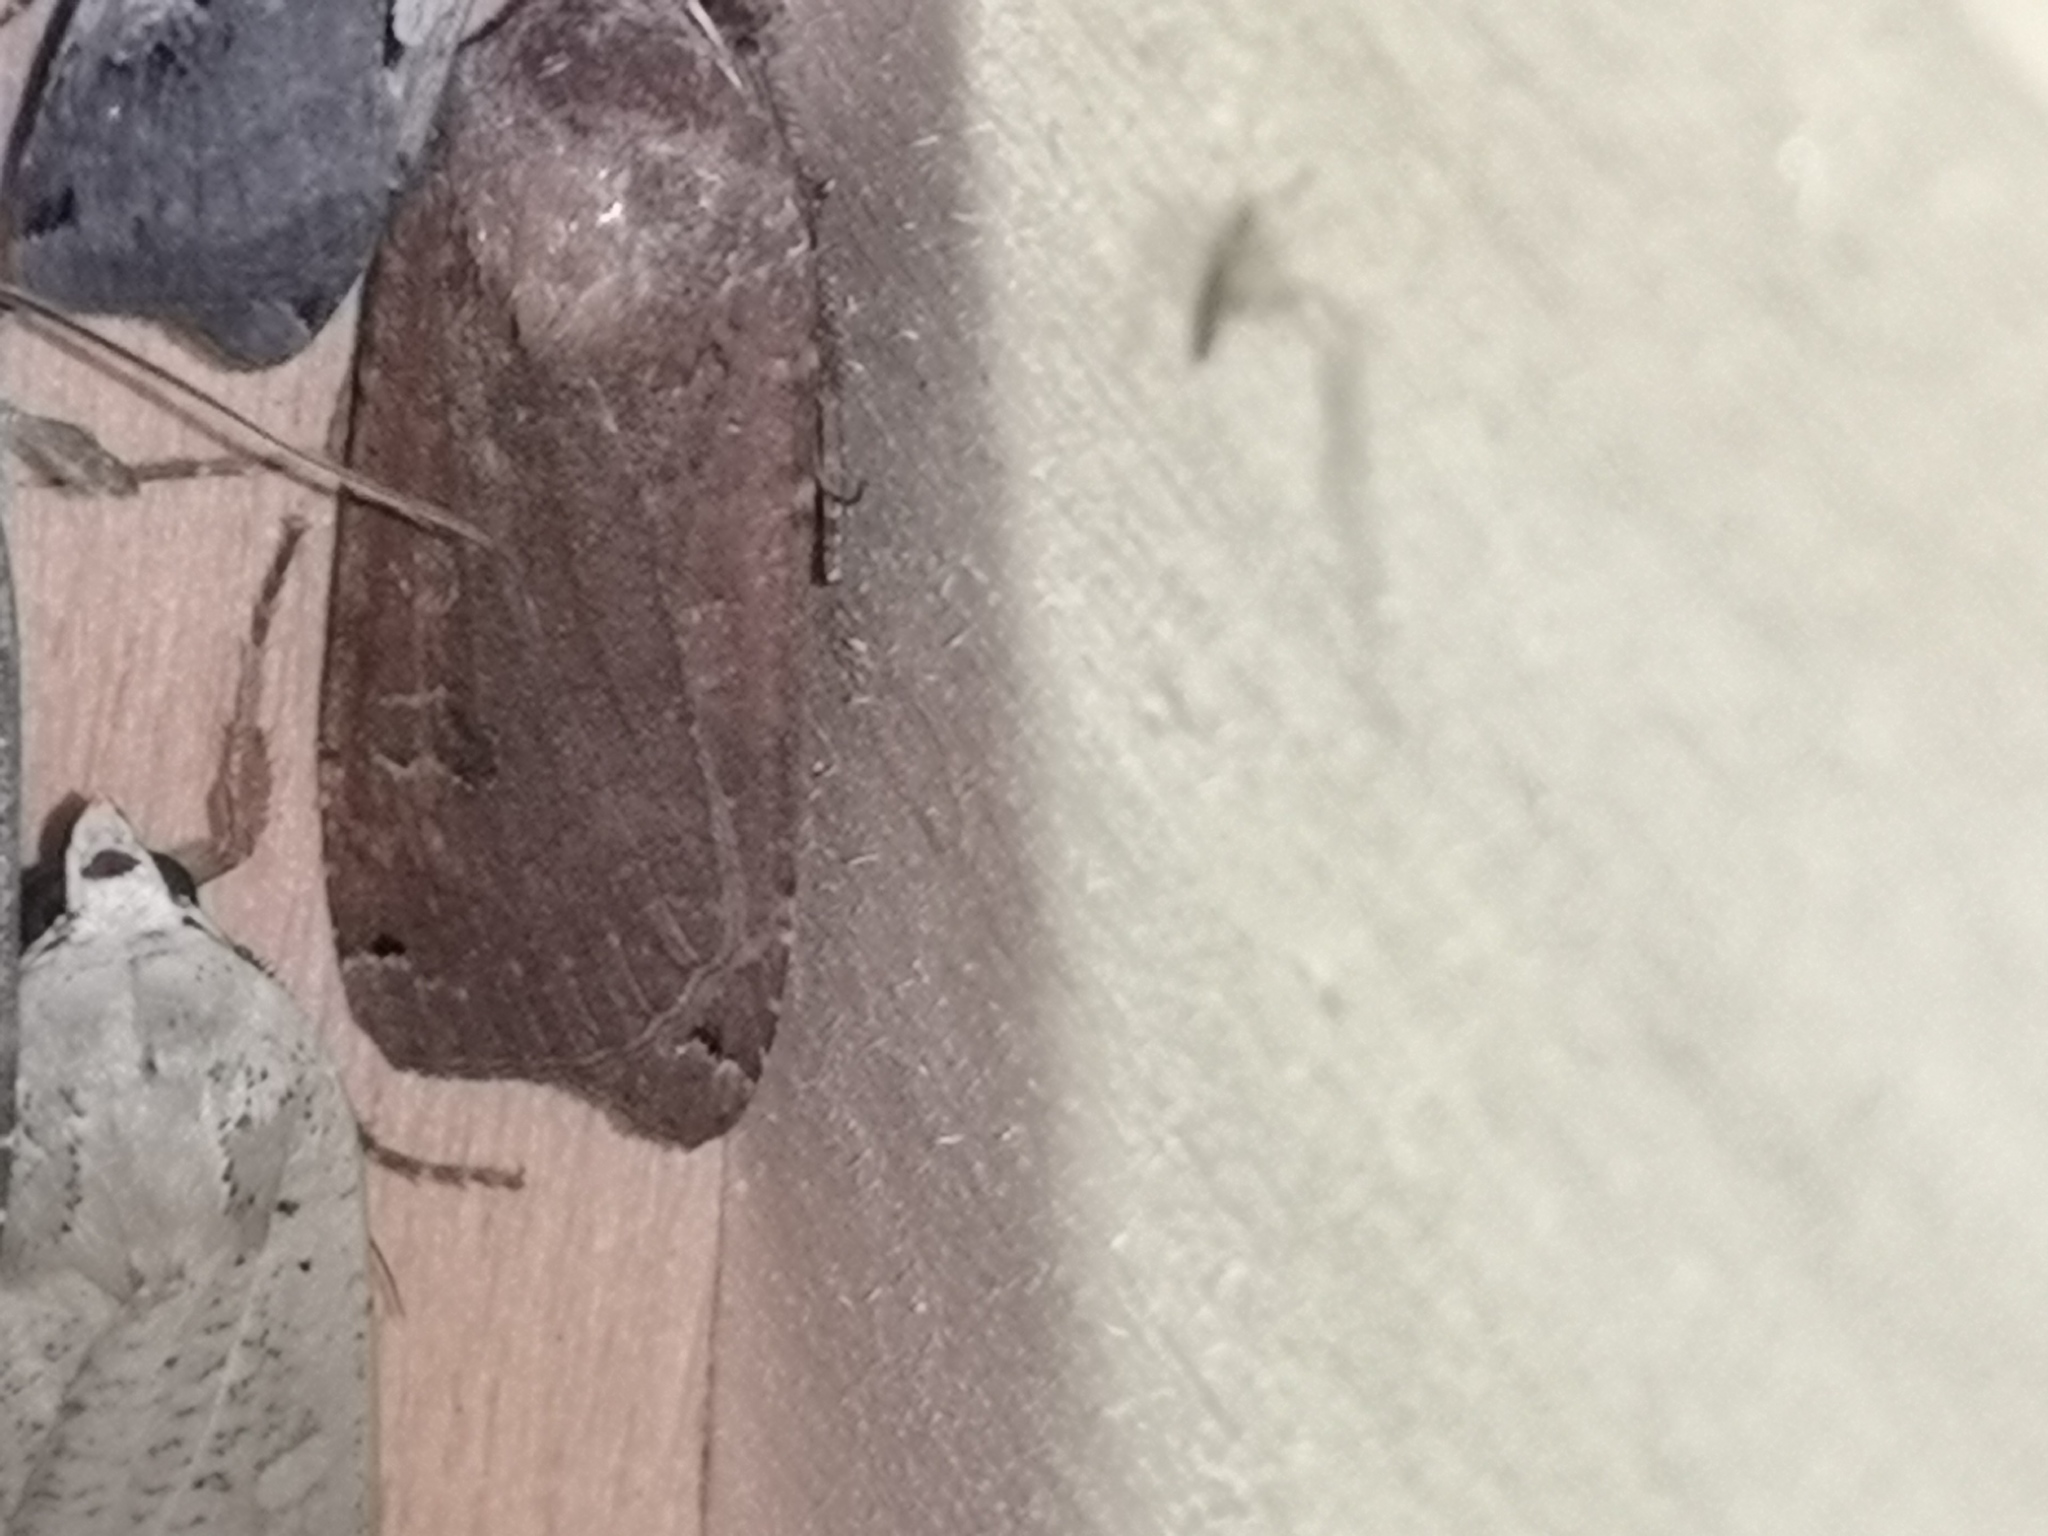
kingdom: Animalia
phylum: Arthropoda
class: Insecta
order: Lepidoptera
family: Noctuidae
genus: Noctua
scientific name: Noctua pronuba
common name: Large yellow underwing
